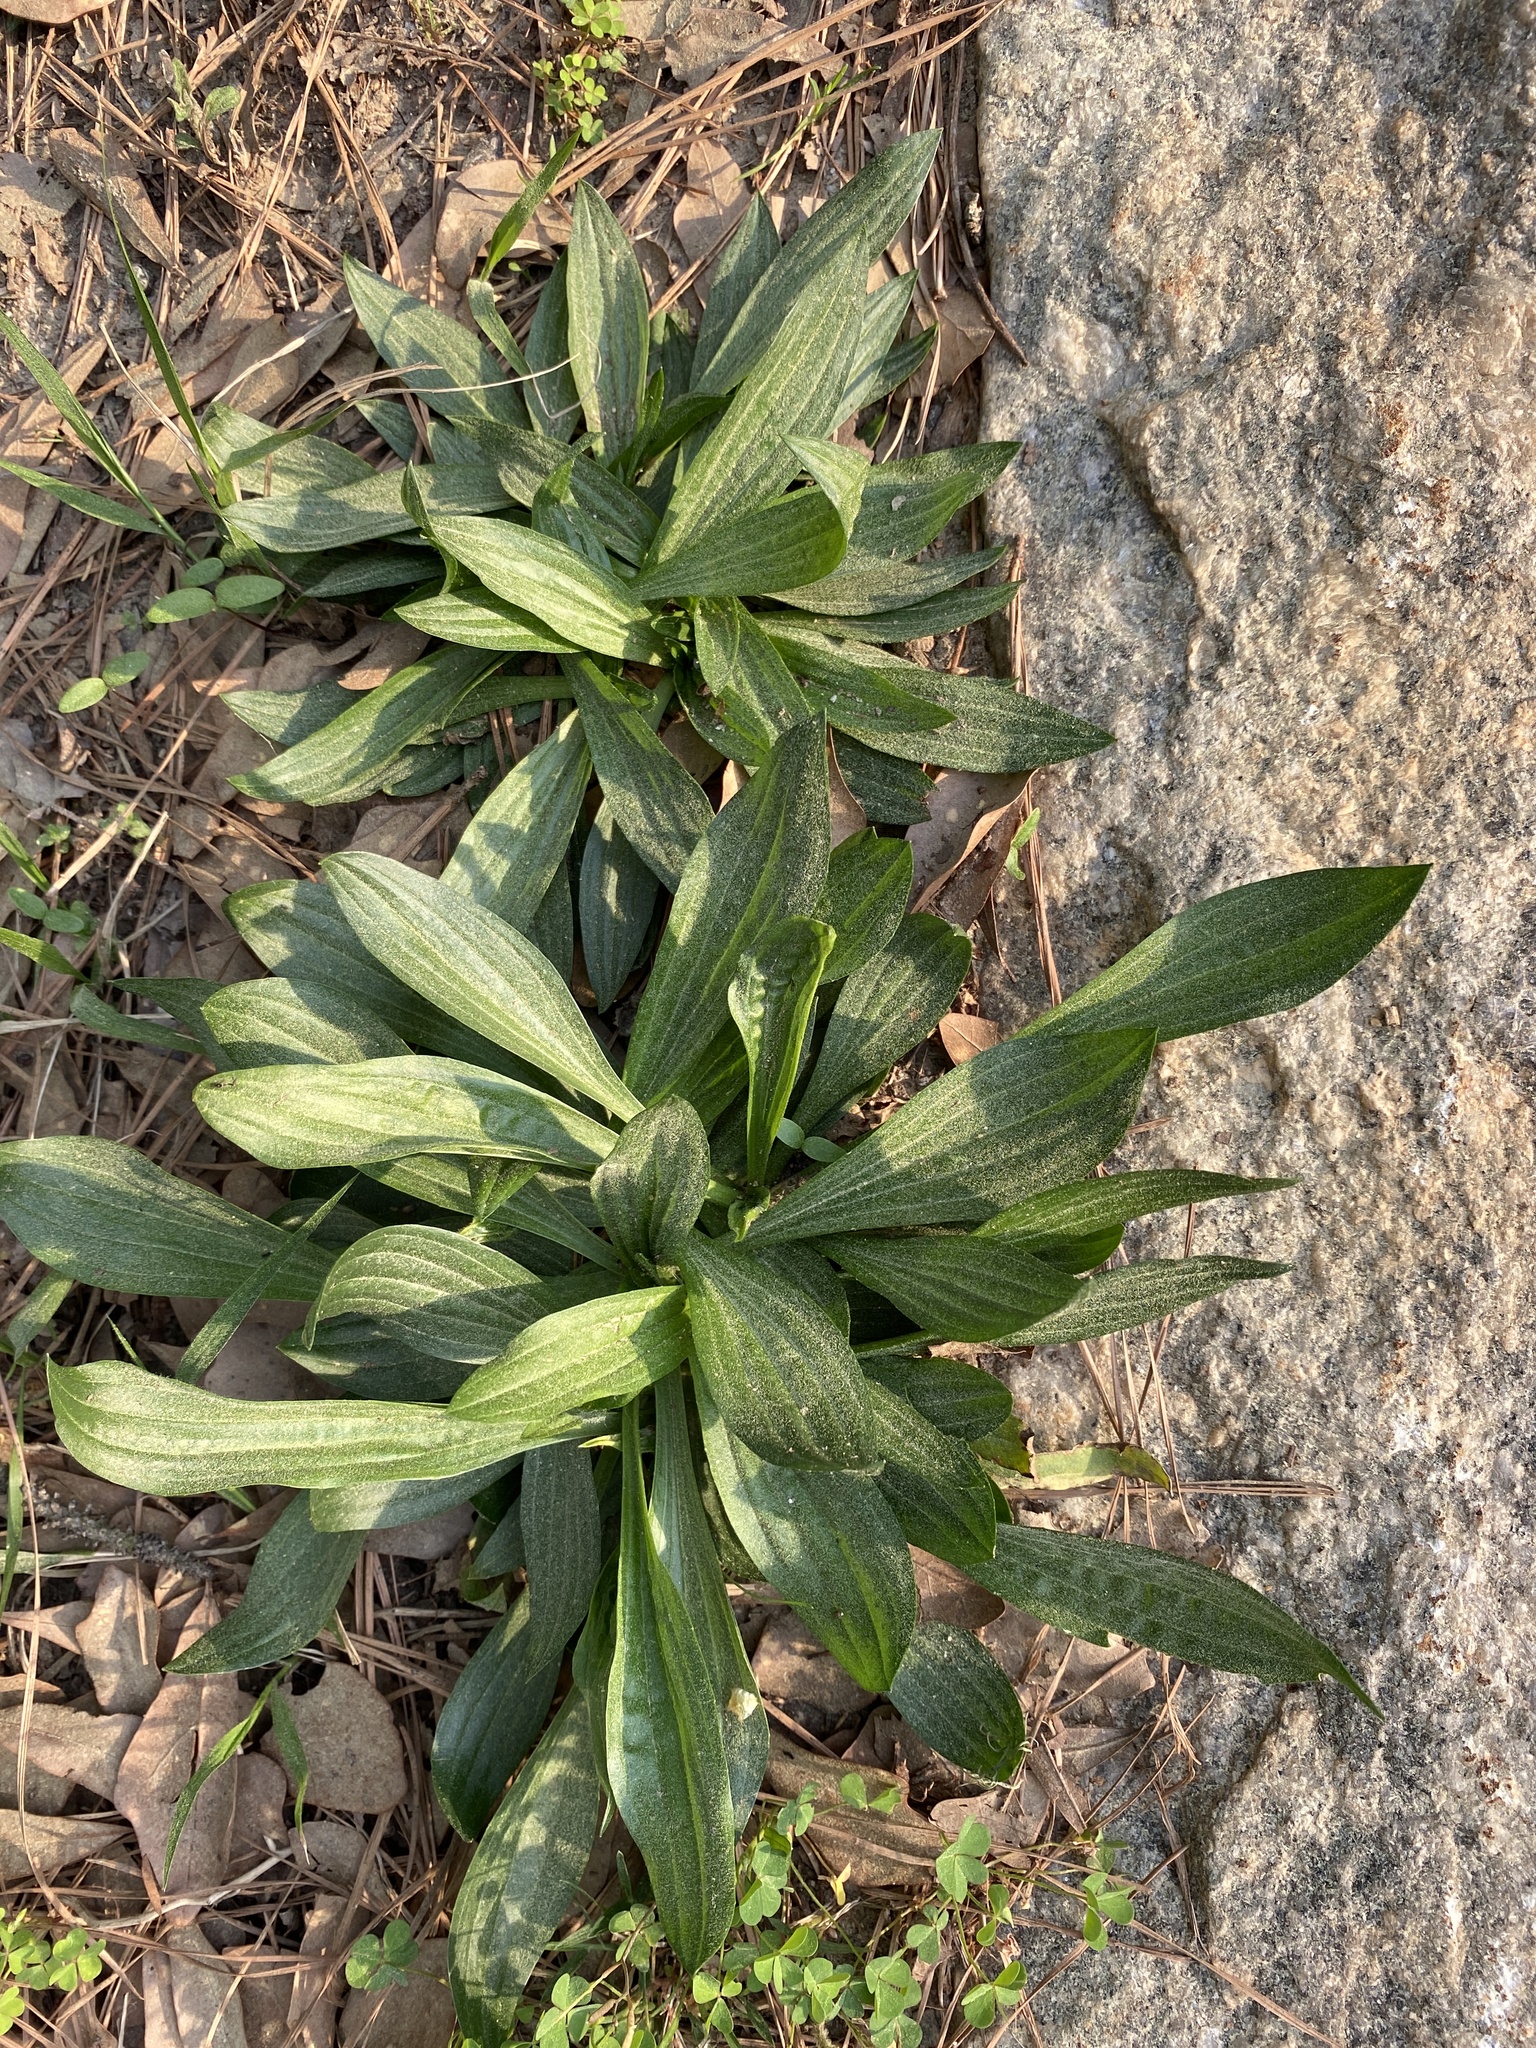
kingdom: Plantae
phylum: Tracheophyta
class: Magnoliopsida
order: Lamiales
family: Plantaginaceae
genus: Plantago
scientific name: Plantago lanceolata
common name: Ribwort plantain
